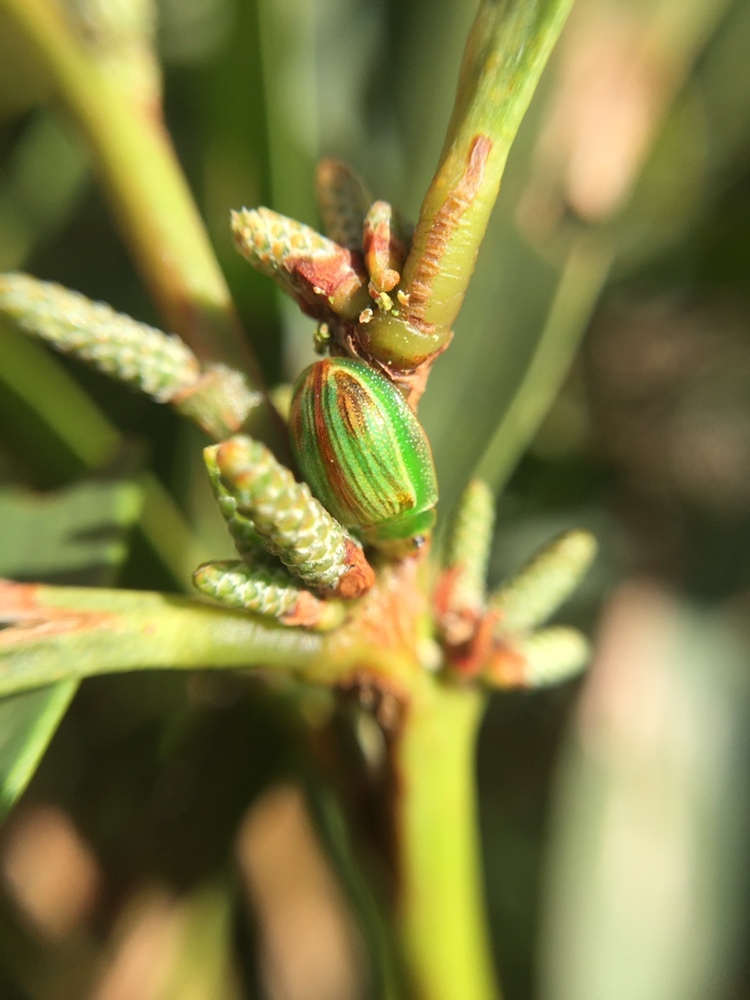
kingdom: Animalia
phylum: Arthropoda
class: Insecta
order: Coleoptera
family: Chrysomelidae
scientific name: Chrysomelidae
